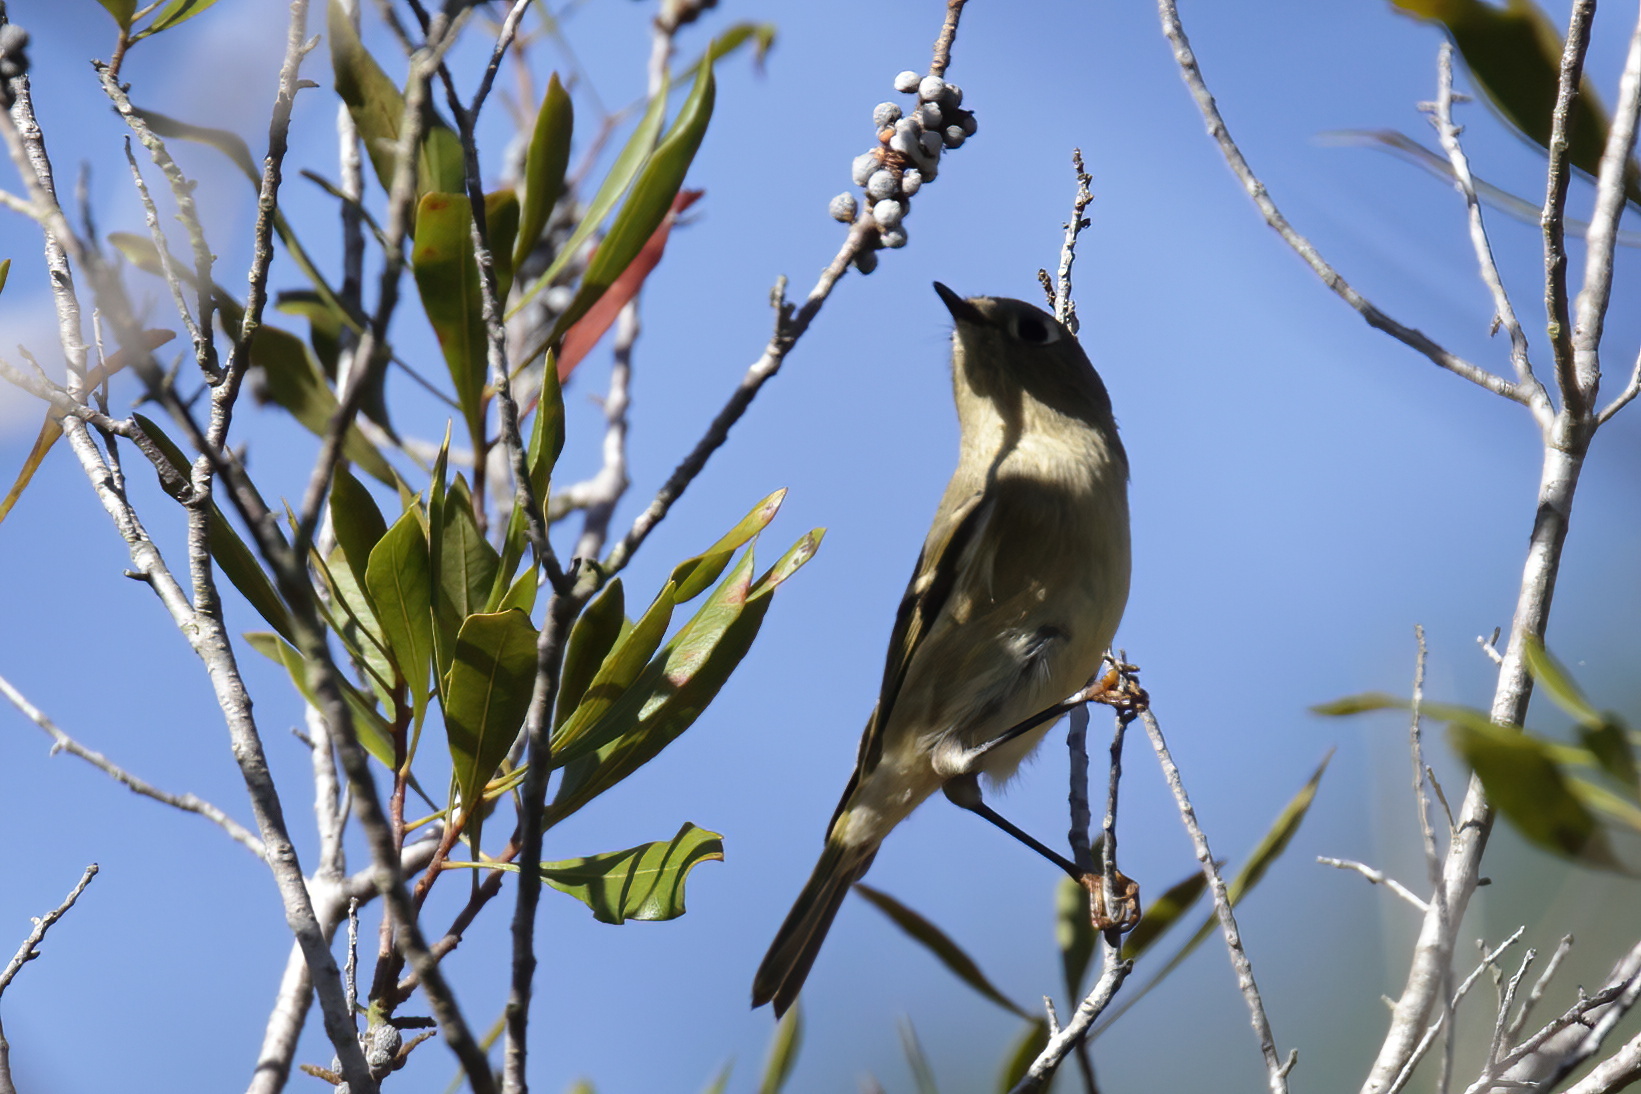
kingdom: Animalia
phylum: Chordata
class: Aves
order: Passeriformes
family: Regulidae
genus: Regulus
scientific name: Regulus calendula
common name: Ruby-crowned kinglet
